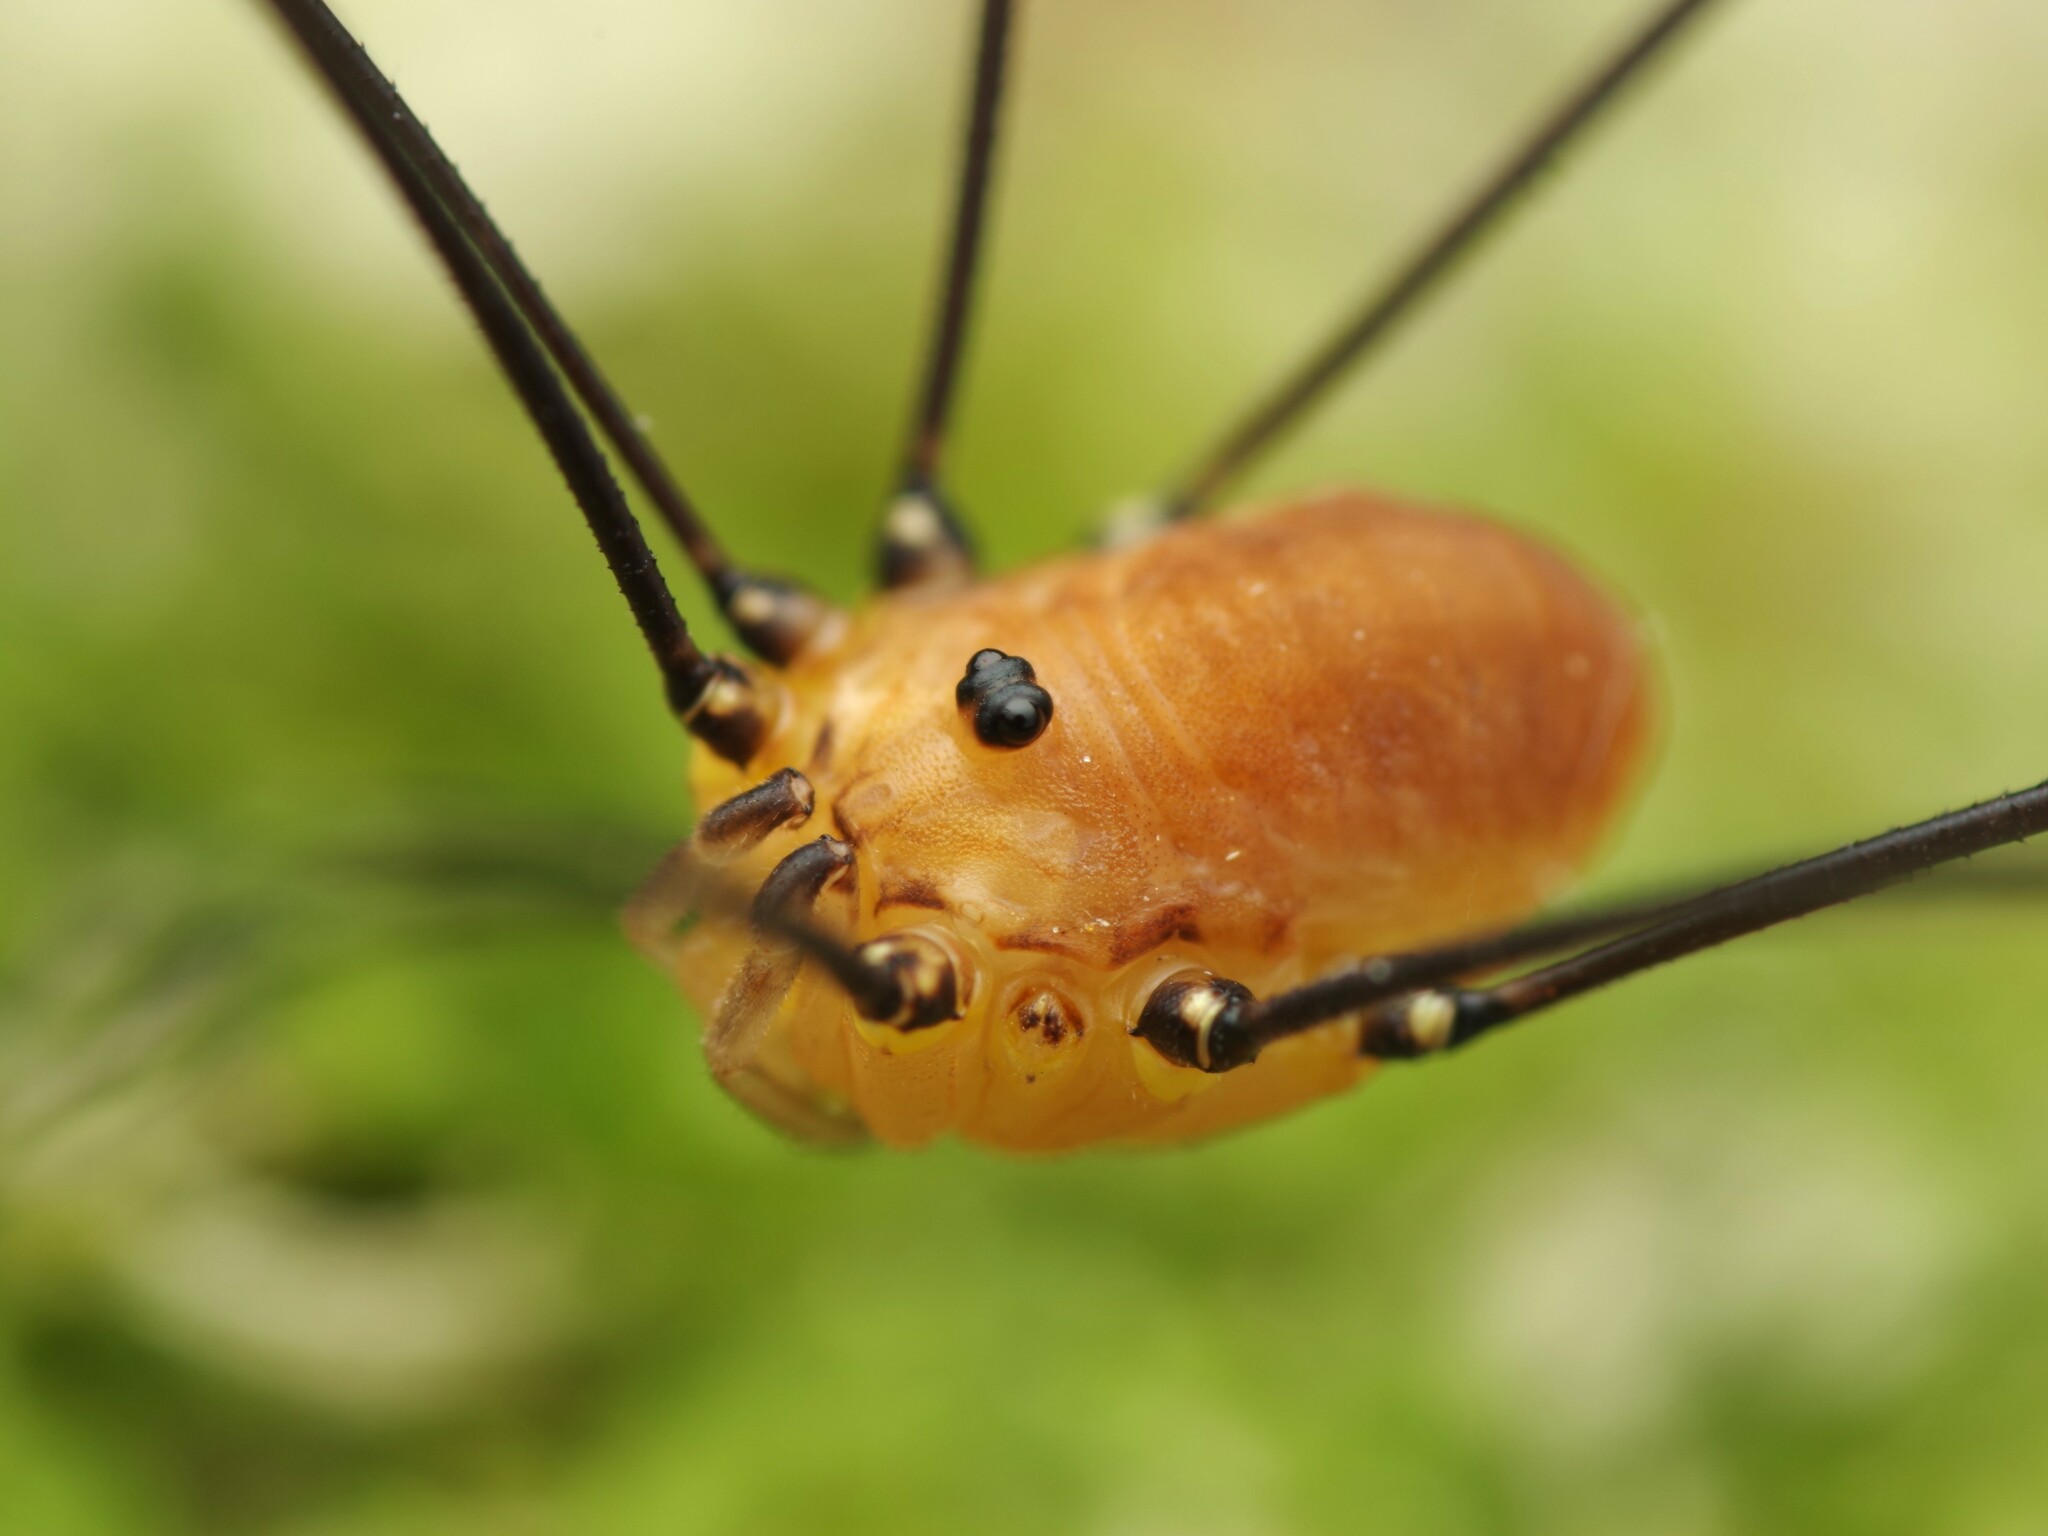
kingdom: Animalia
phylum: Arthropoda
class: Arachnida
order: Opiliones
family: Sclerosomatidae
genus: Leiobunum
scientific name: Leiobunum rotundum
